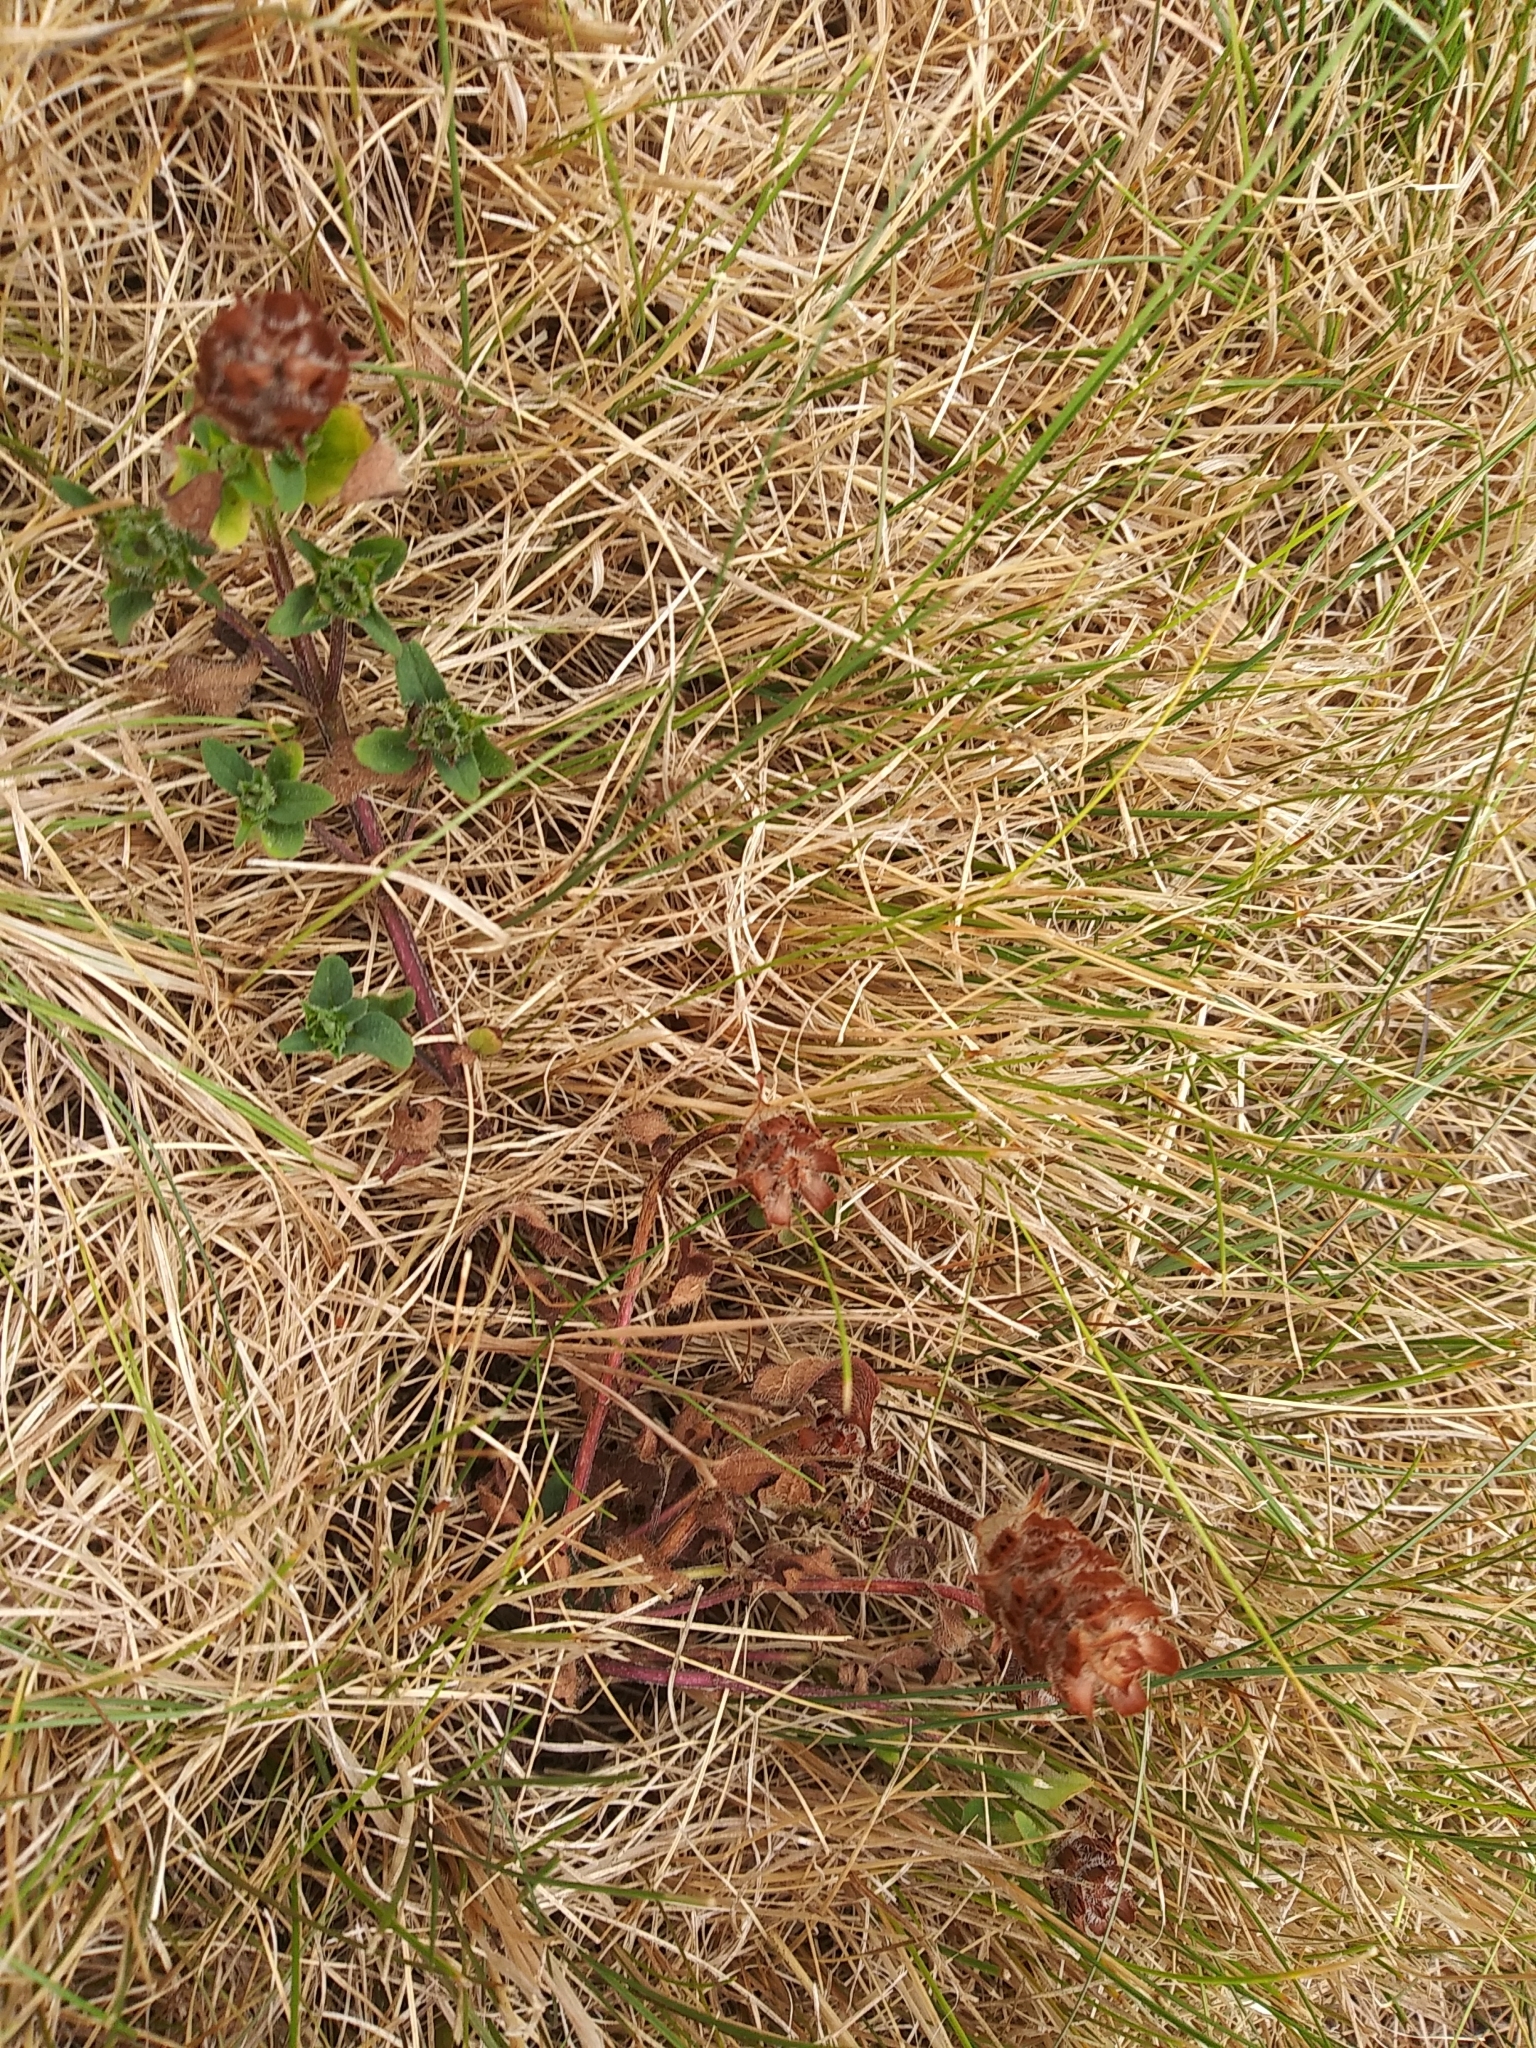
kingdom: Plantae
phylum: Tracheophyta
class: Magnoliopsida
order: Lamiales
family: Lamiaceae
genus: Prunella
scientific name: Prunella vulgaris
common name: Heal-all
